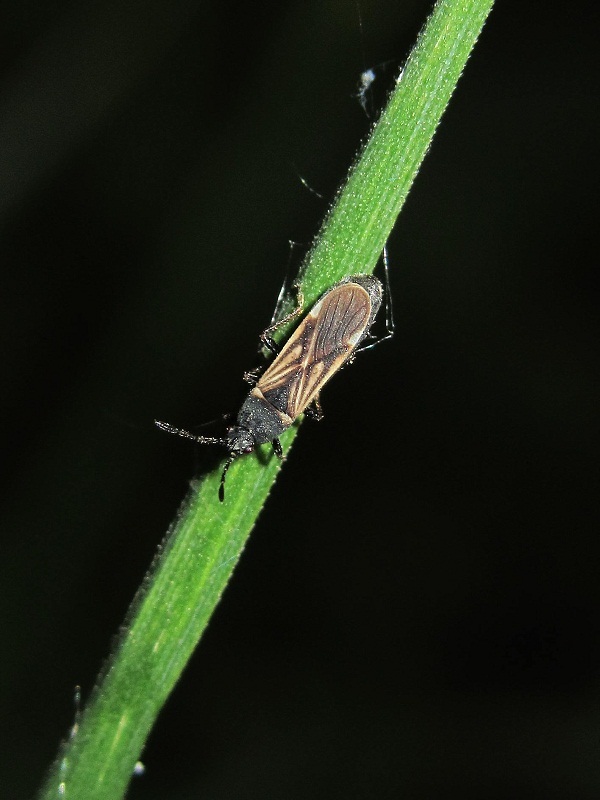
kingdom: Animalia
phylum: Arthropoda
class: Insecta
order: Hemiptera
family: Blissidae
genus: Ischnodemus
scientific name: Ischnodemus sabuleti
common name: European cinchbug
